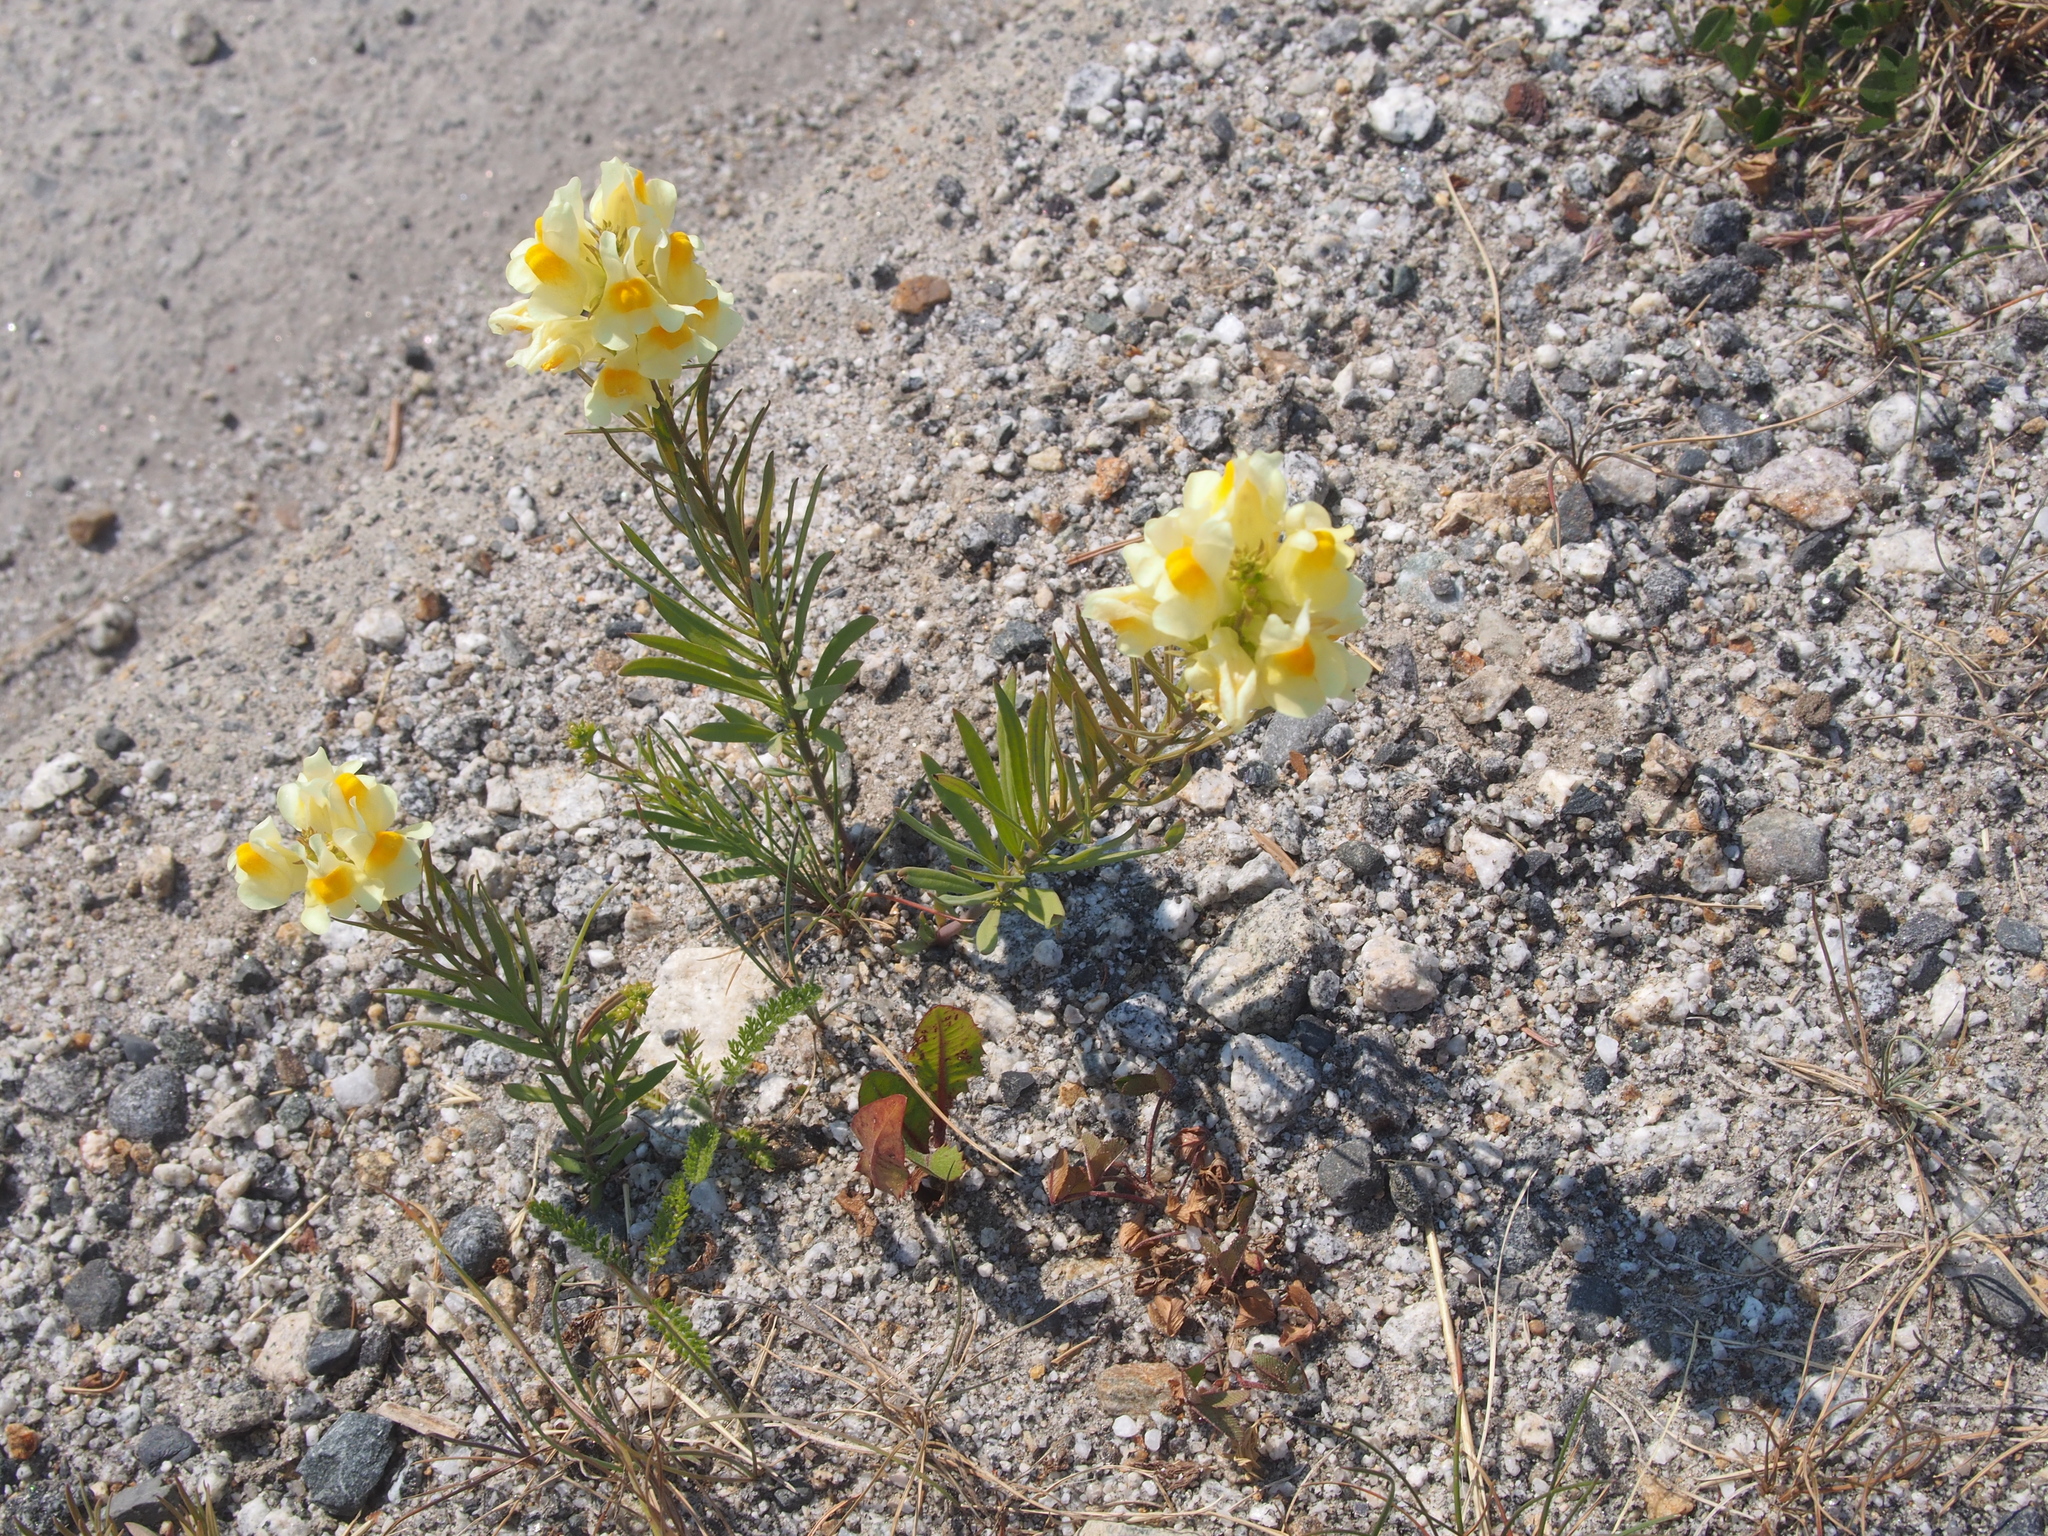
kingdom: Plantae
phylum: Tracheophyta
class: Magnoliopsida
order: Lamiales
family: Plantaginaceae
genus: Linaria
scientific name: Linaria vulgaris
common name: Butter and eggs
